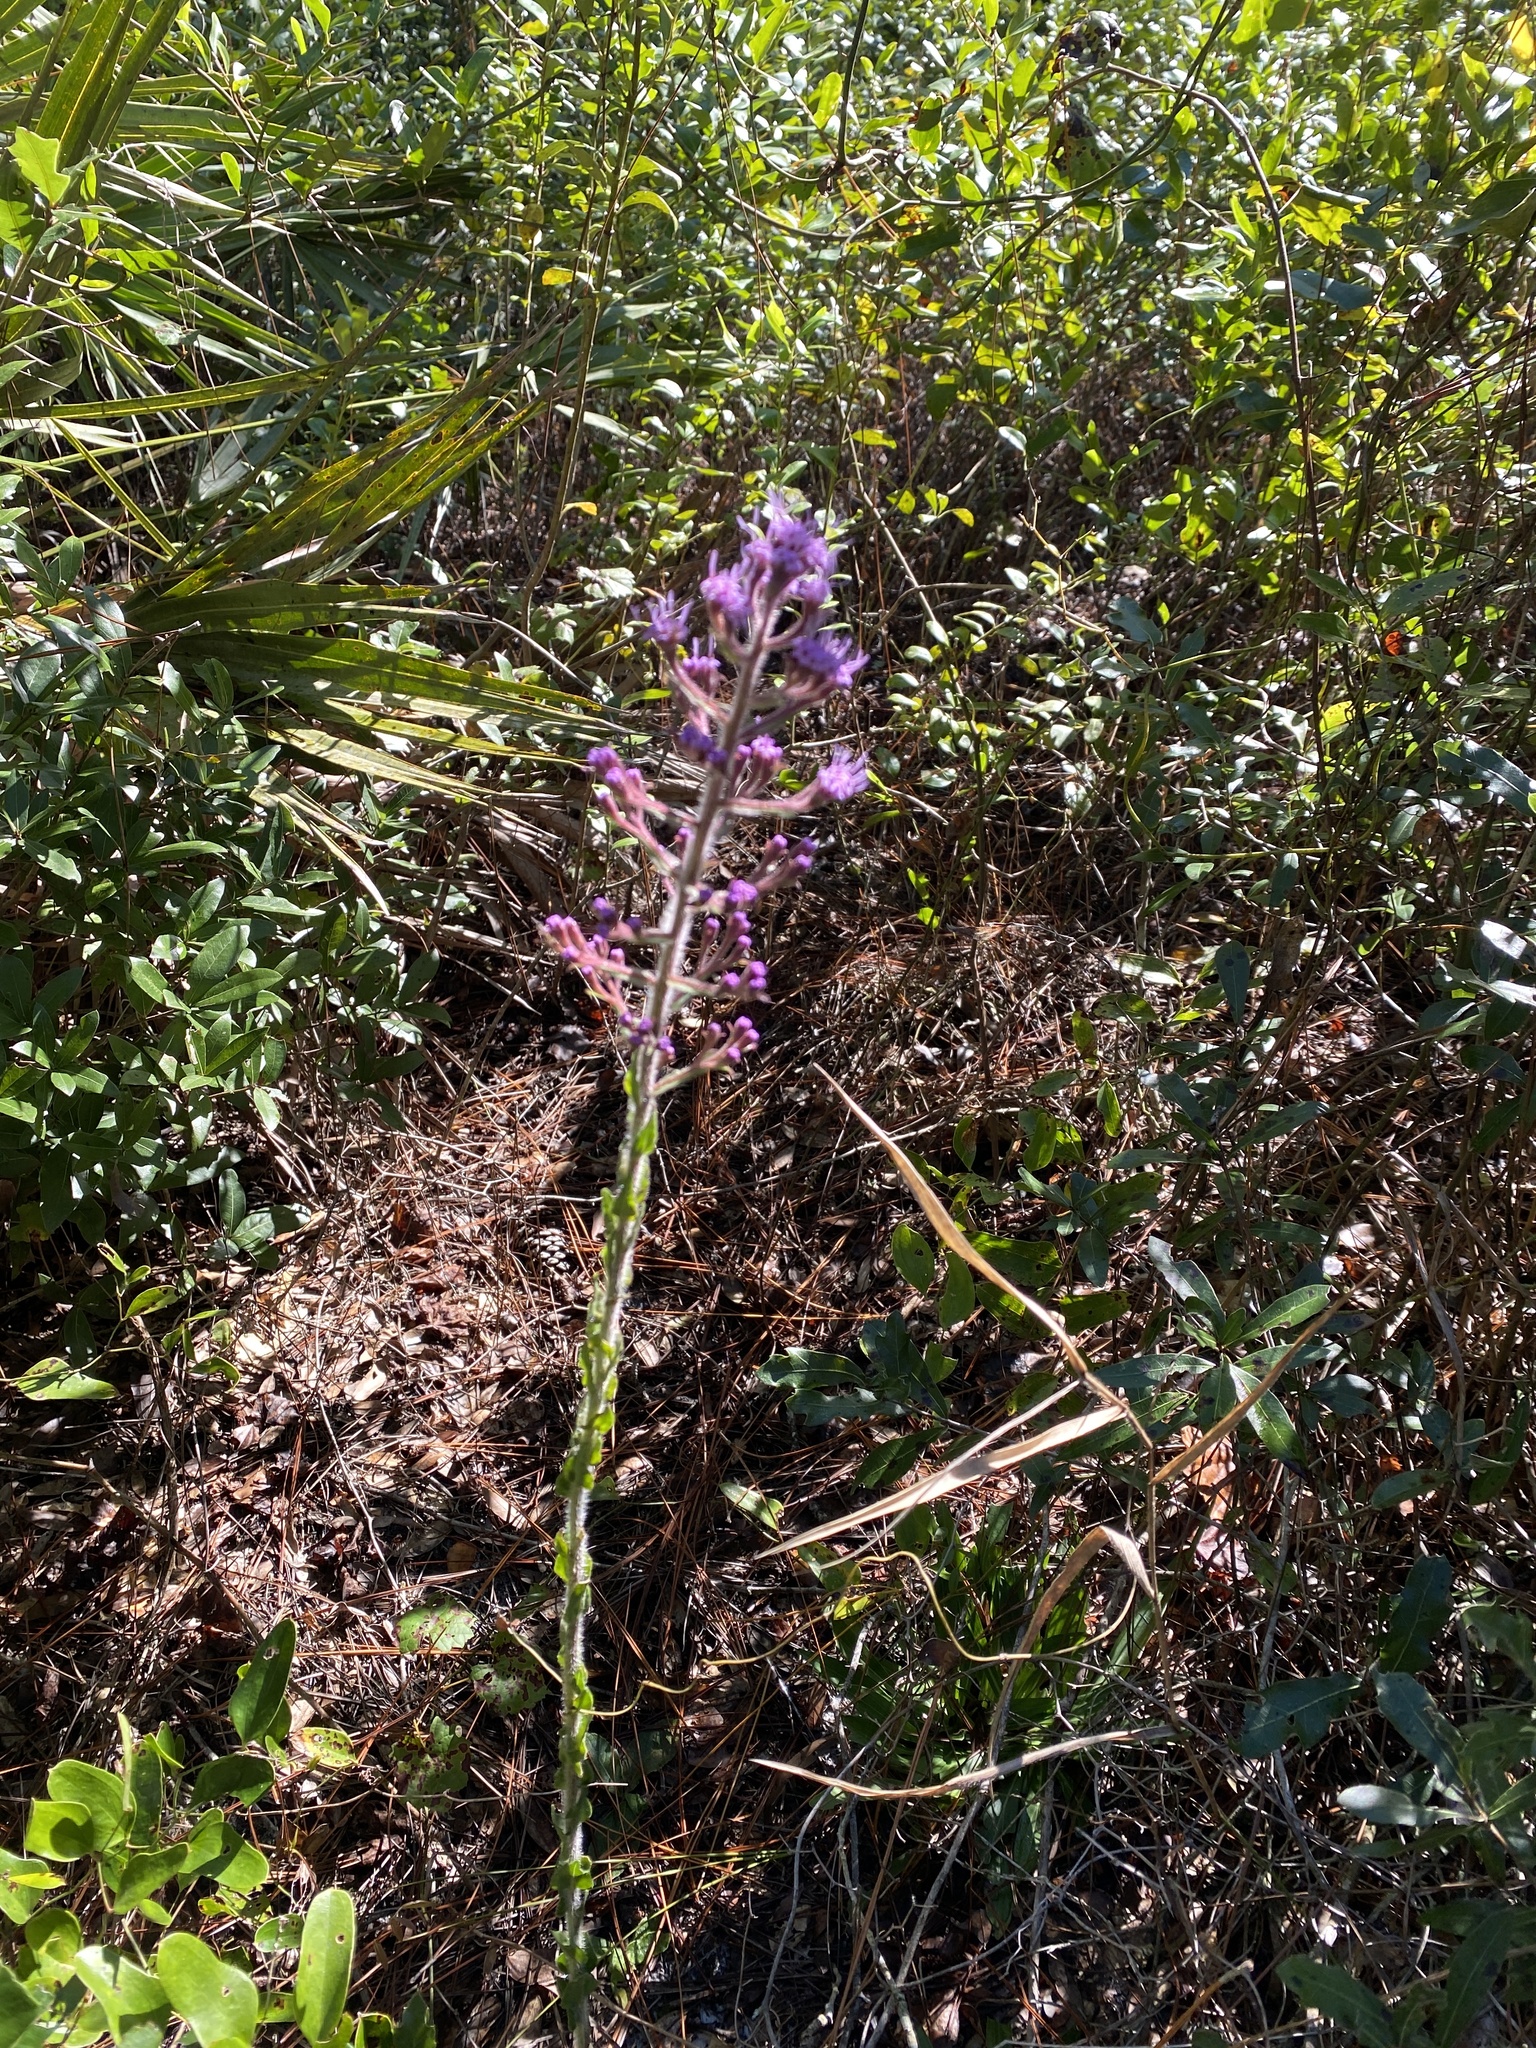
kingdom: Plantae
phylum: Tracheophyta
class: Magnoliopsida
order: Asterales
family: Asteraceae
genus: Carphephorus
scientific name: Carphephorus paniculatus
